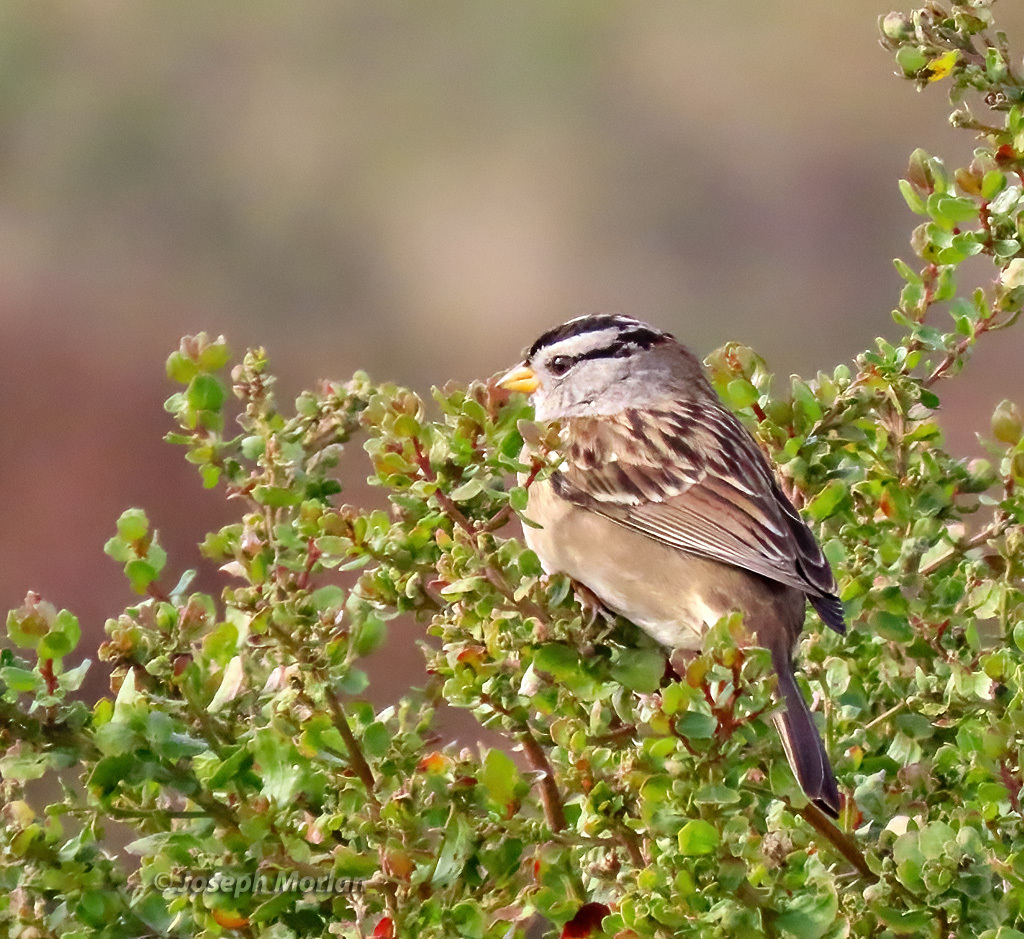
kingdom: Animalia
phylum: Chordata
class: Aves
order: Passeriformes
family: Passerellidae
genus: Zonotrichia
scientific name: Zonotrichia leucophrys
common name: White-crowned sparrow
